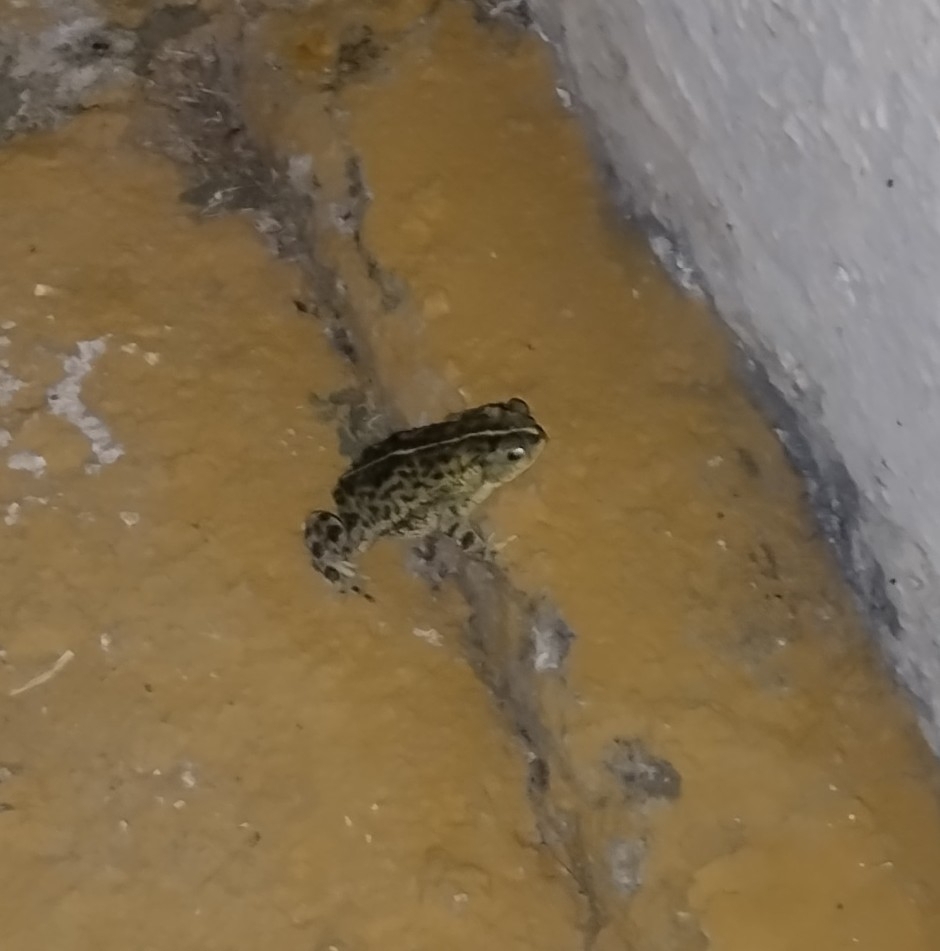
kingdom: Animalia
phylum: Chordata
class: Amphibia
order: Anura
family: Bufonidae
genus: Rhinella
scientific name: Rhinella dorbignyi
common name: D´orbigny’s toad
